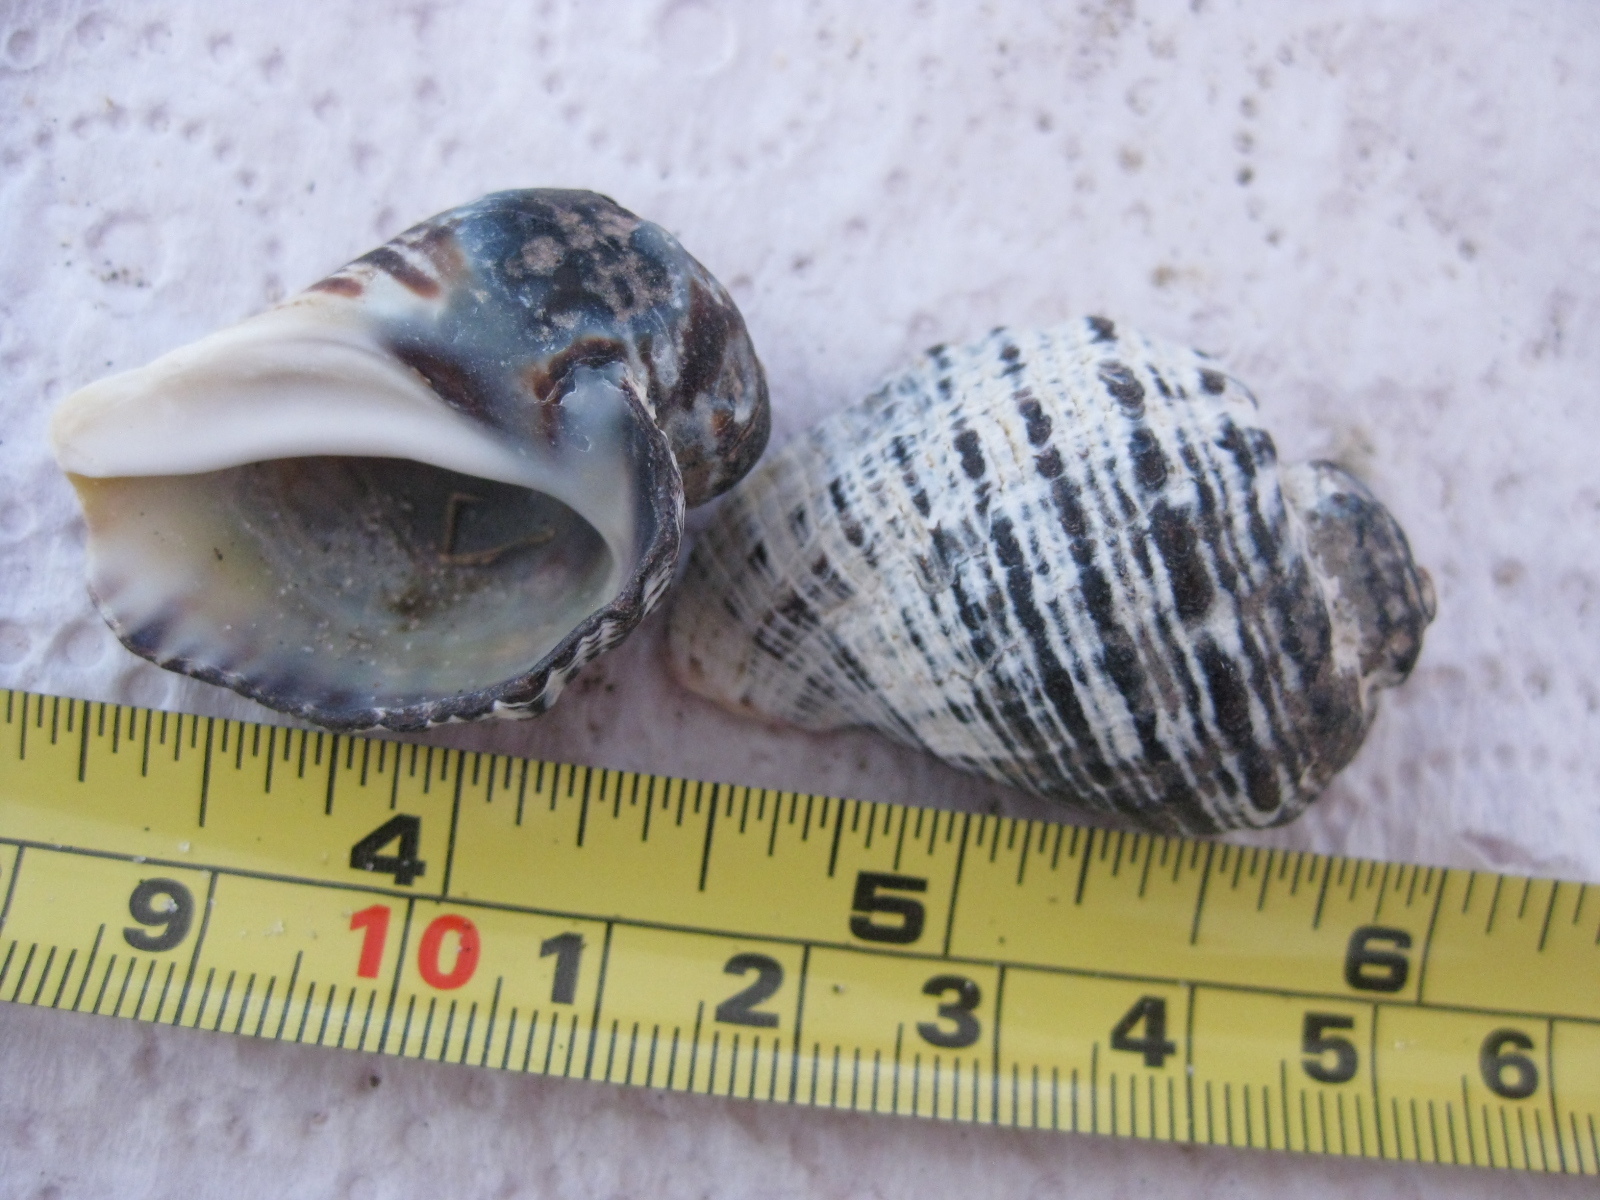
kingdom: Animalia
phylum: Mollusca
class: Gastropoda
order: Neogastropoda
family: Muricidae
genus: Haustrum
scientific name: Haustrum haustorium
